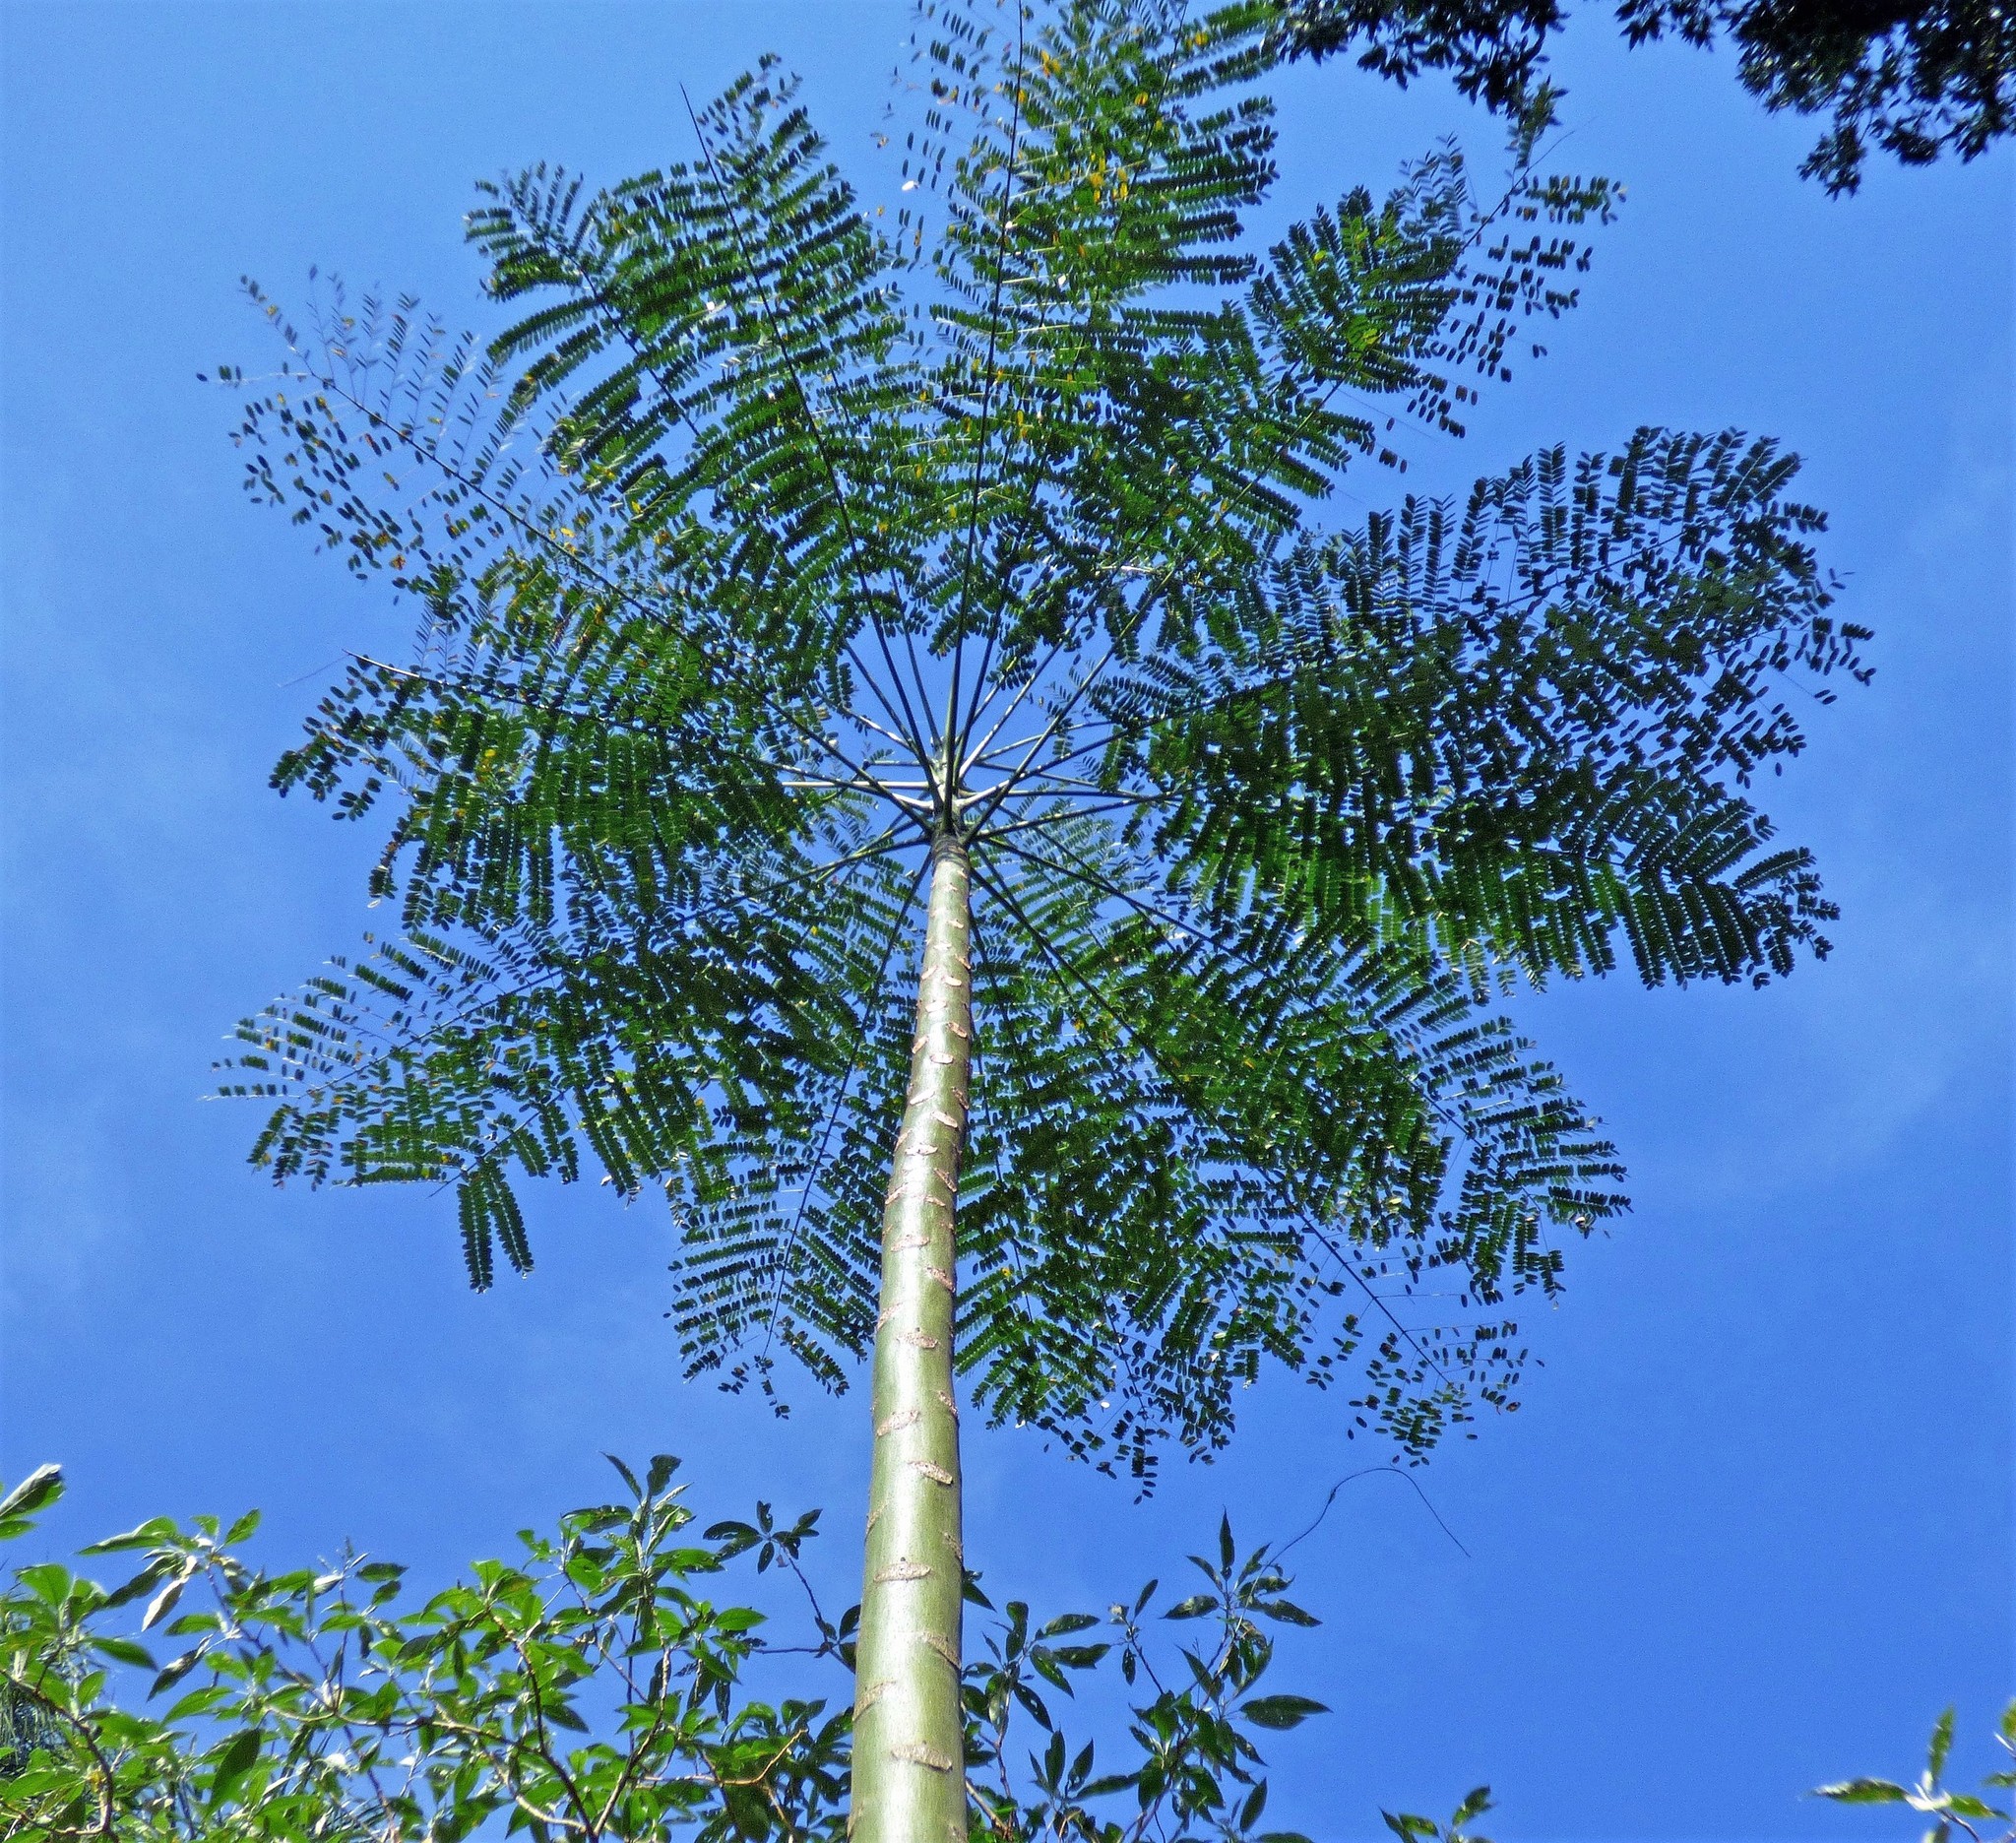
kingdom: Plantae
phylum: Tracheophyta
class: Magnoliopsida
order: Fabales
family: Fabaceae
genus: Schizolobium
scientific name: Schizolobium parahyba
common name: Brazilian firetree
